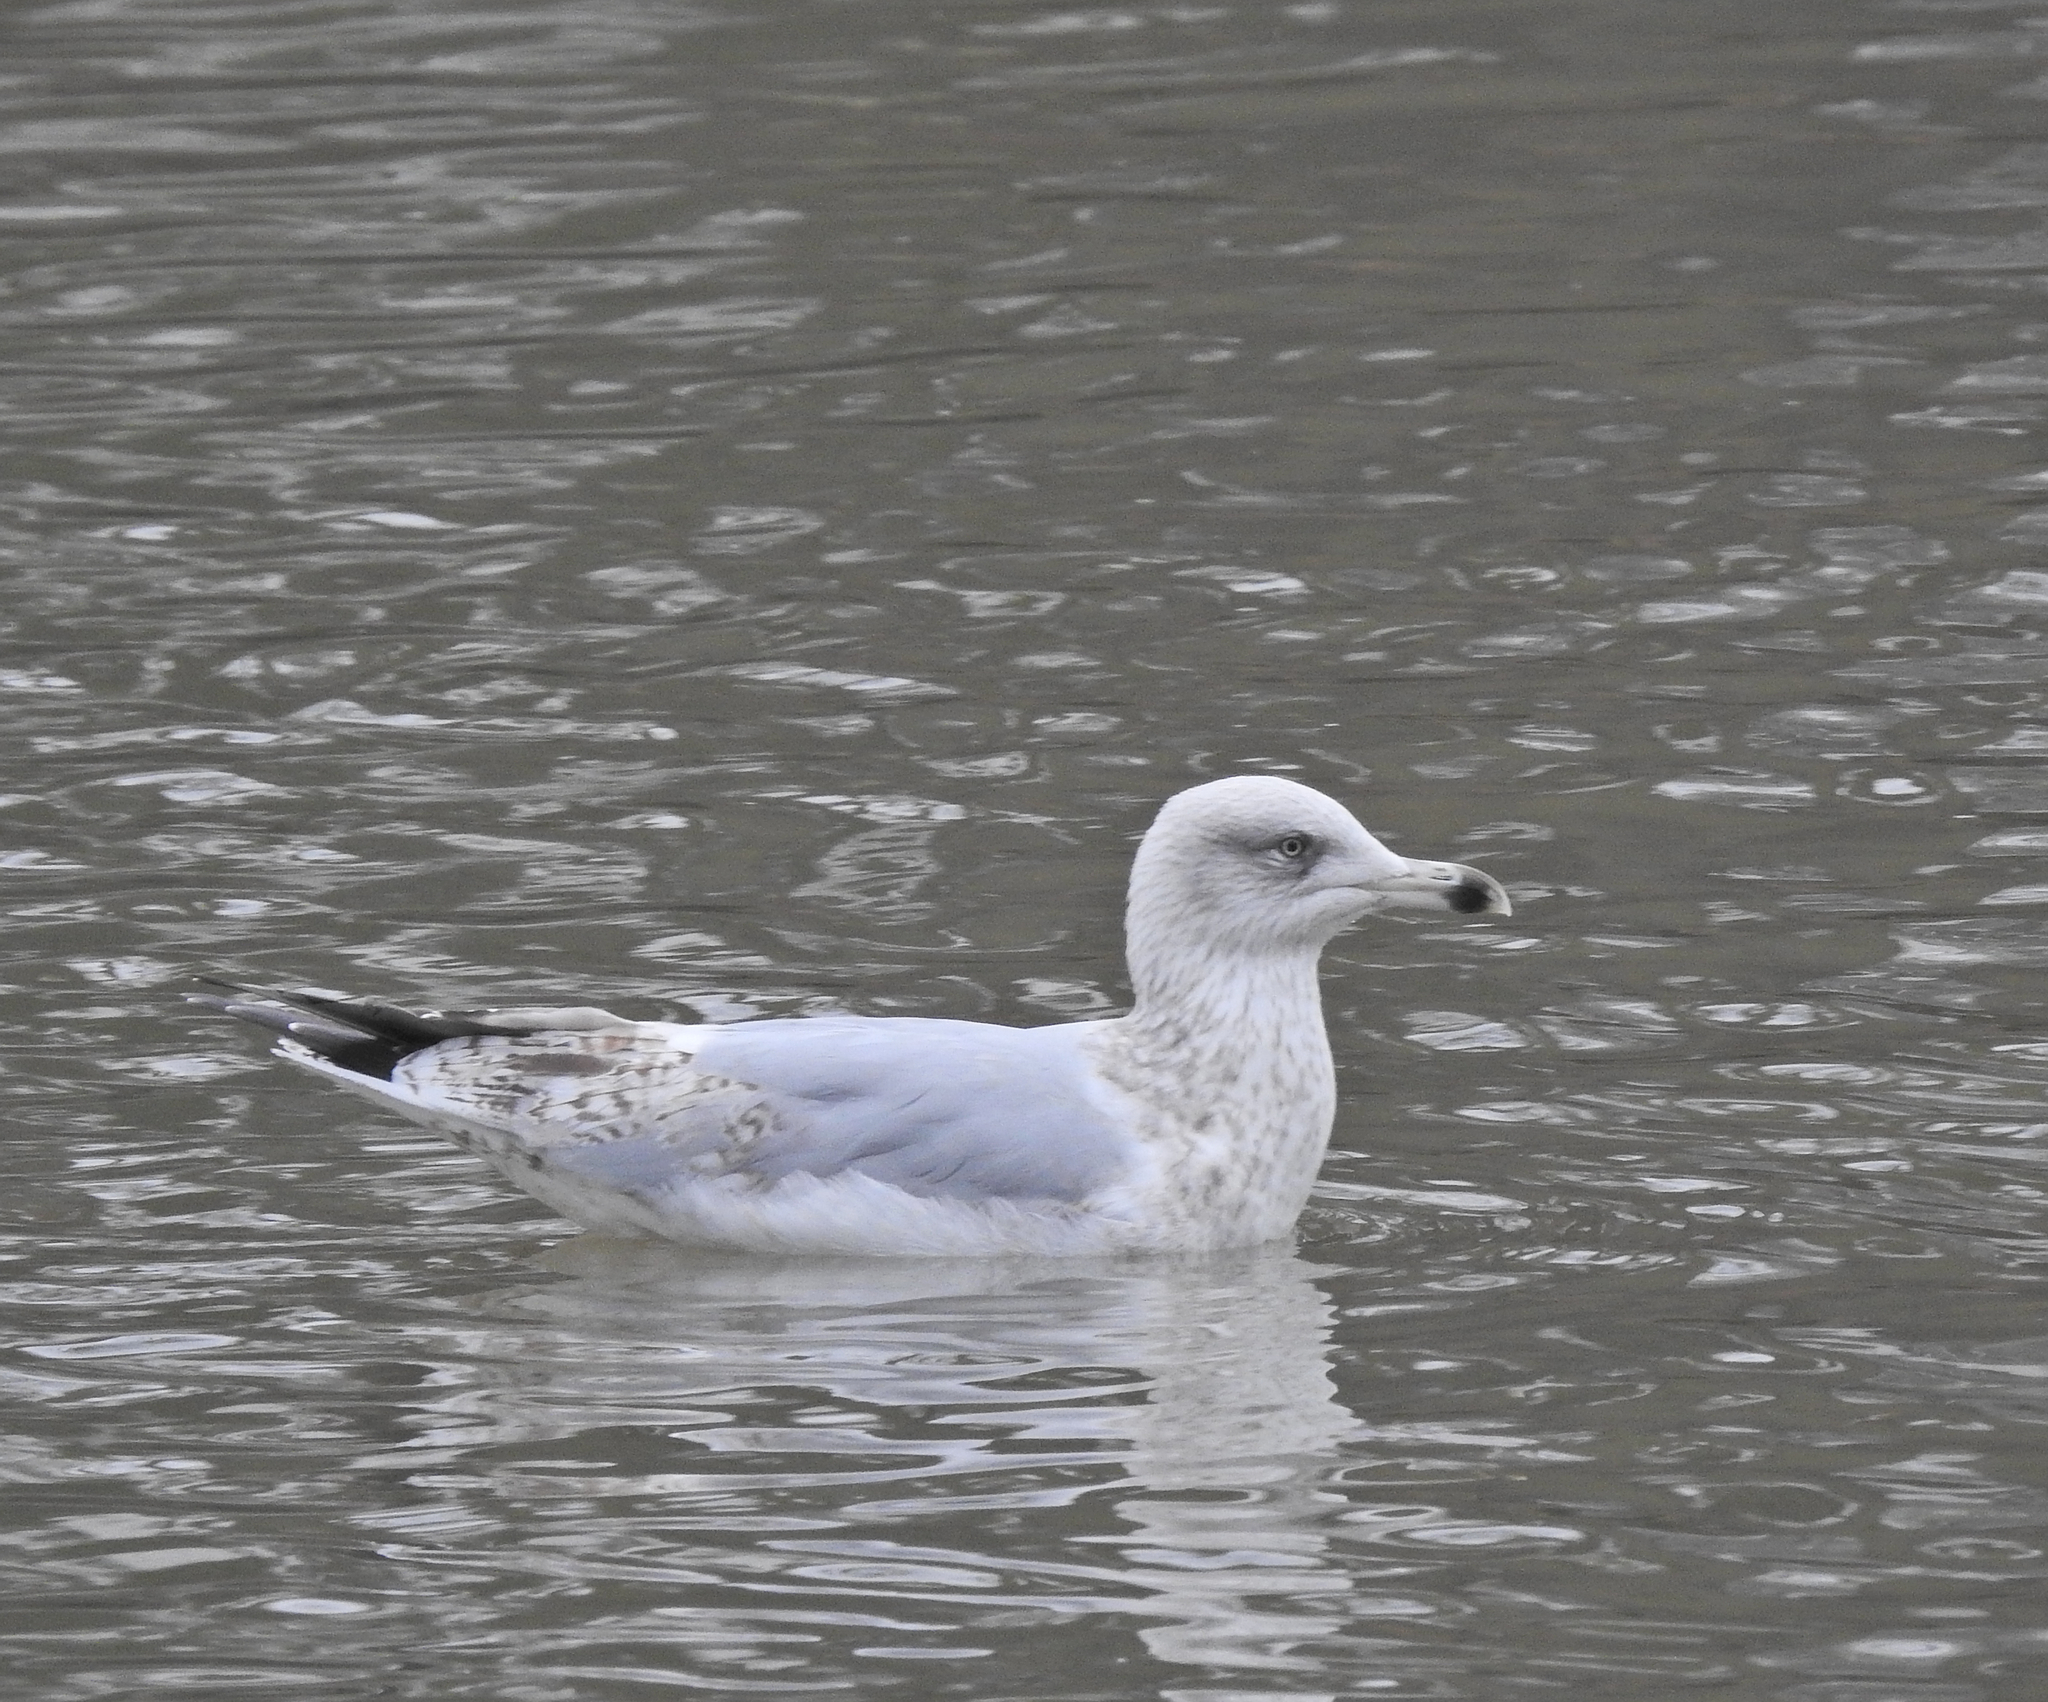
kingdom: Animalia
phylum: Chordata
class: Aves
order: Charadriiformes
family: Laridae
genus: Larus
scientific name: Larus argentatus
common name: Herring gull
